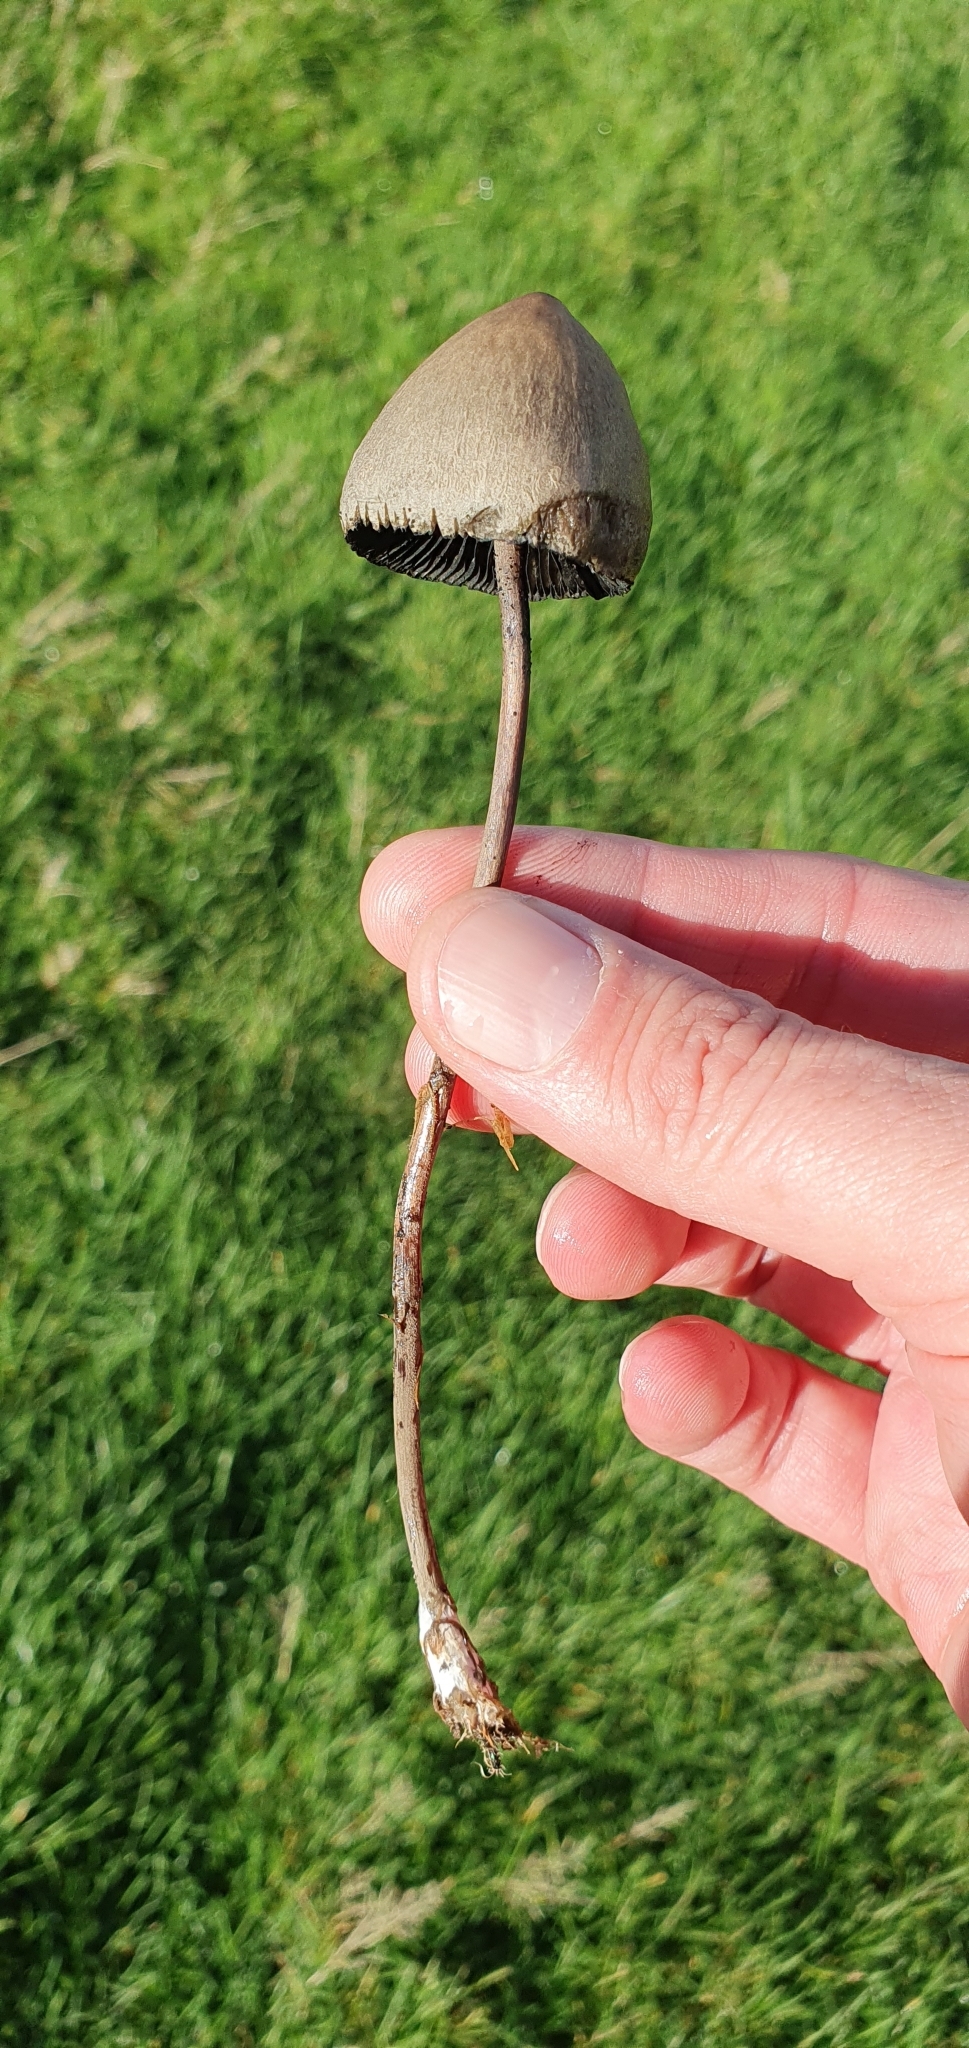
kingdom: Fungi
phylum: Basidiomycota
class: Agaricomycetes
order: Agaricales
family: Bolbitiaceae
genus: Panaeolus
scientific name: Panaeolus papilionaceus
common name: Petticoat mottlegill
